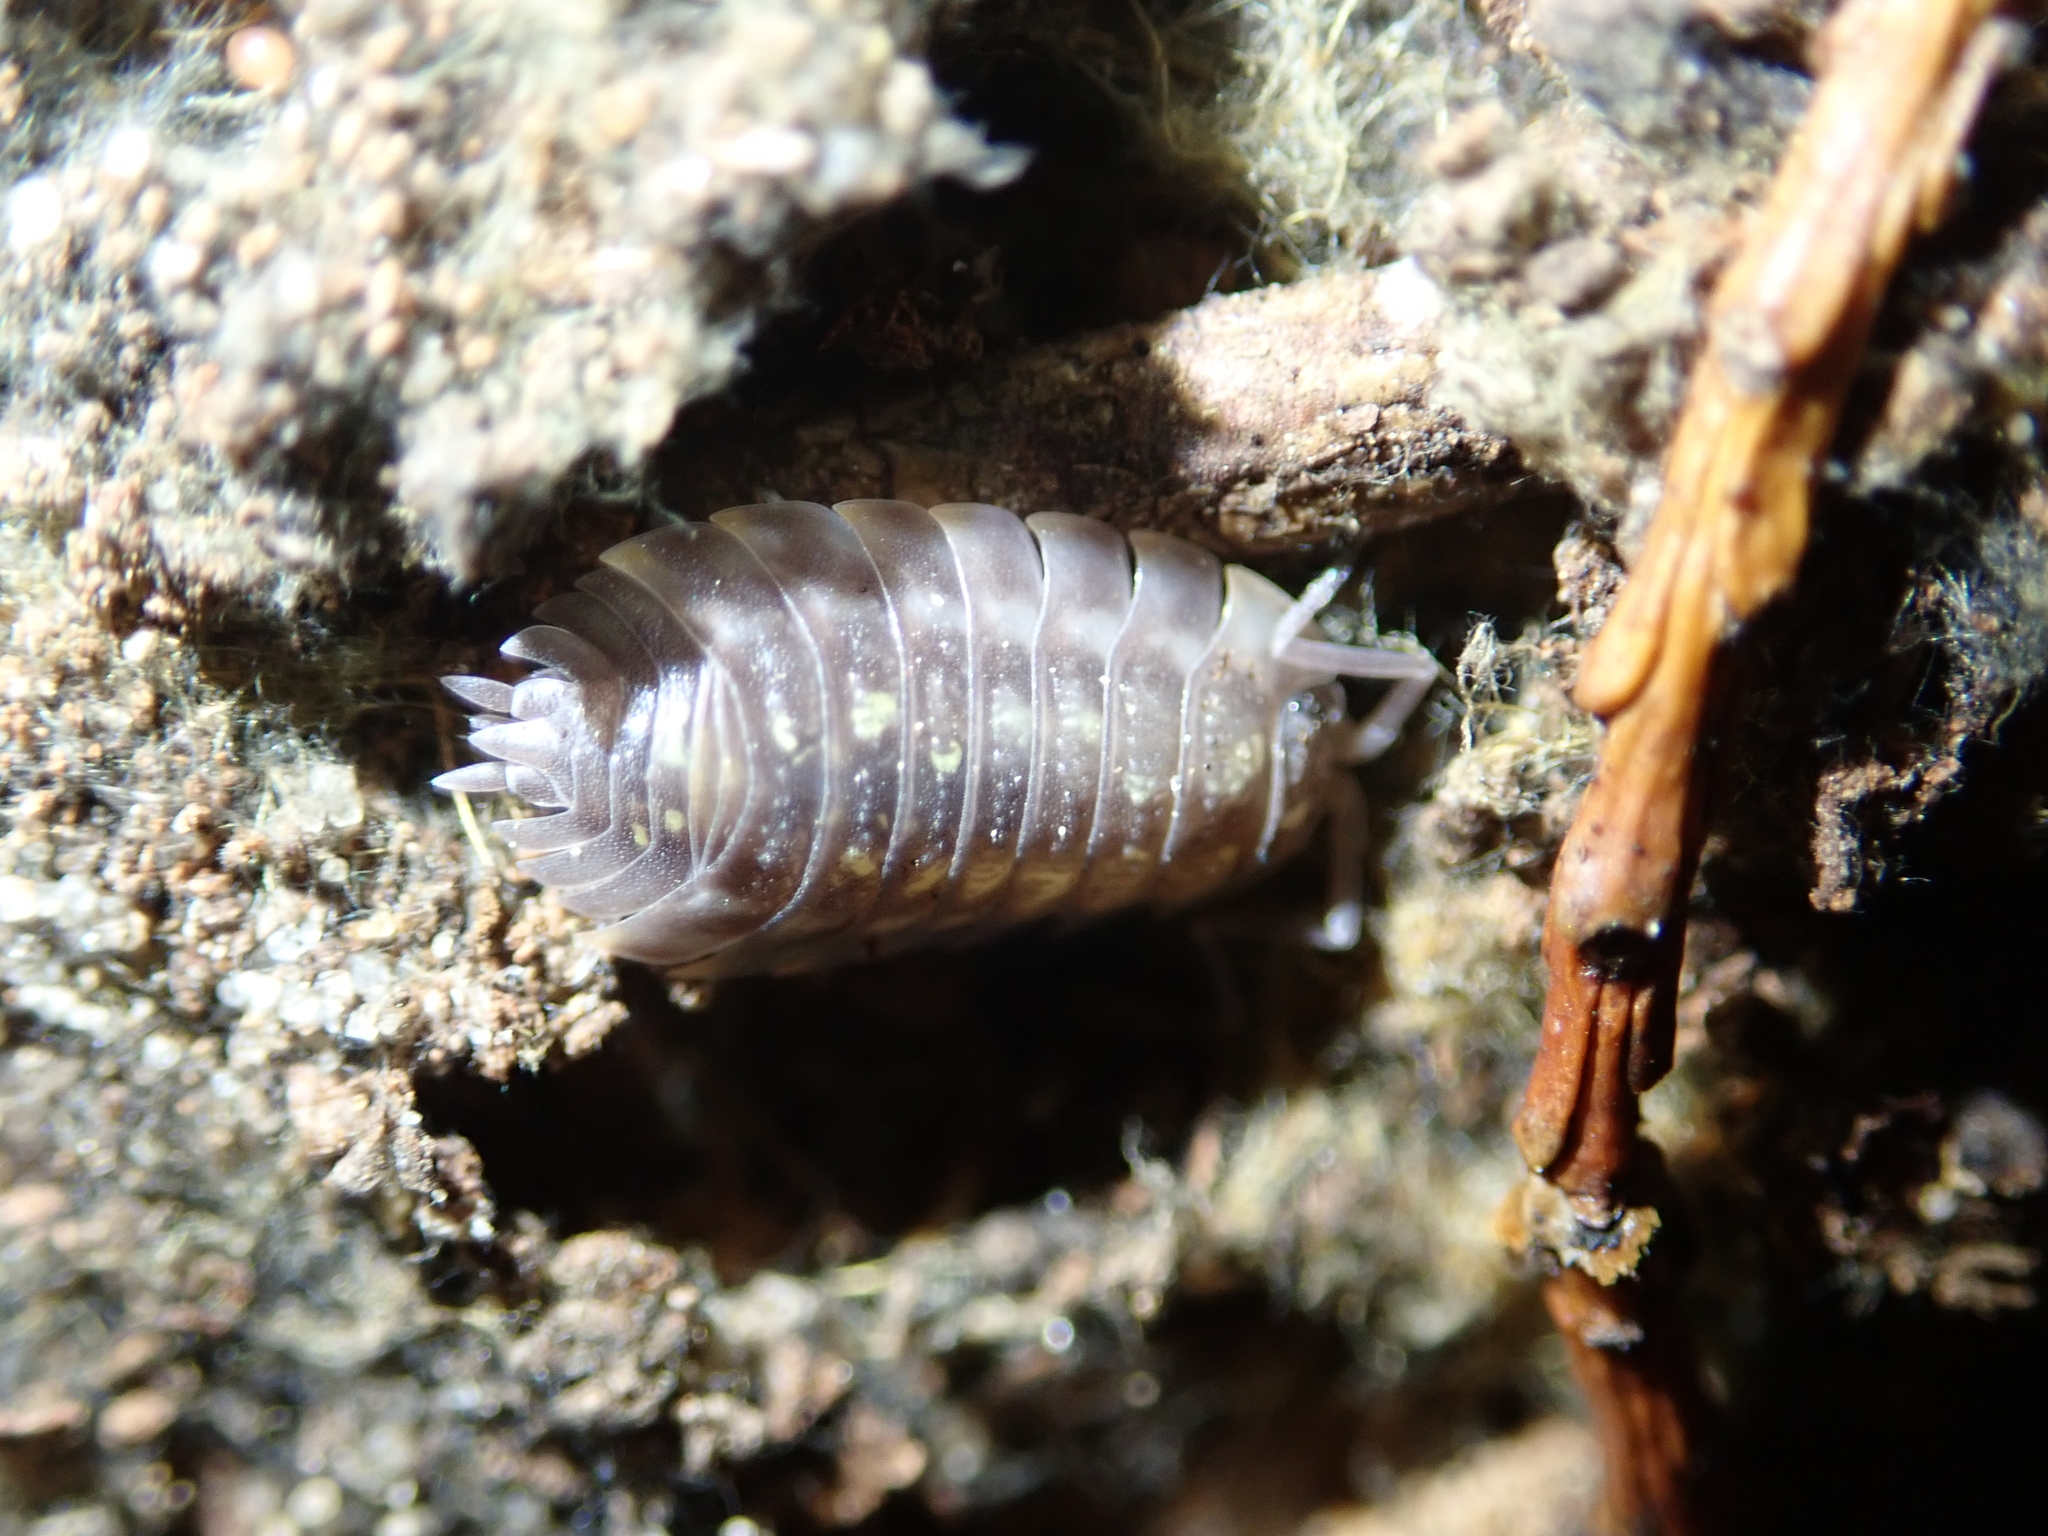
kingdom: Animalia
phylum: Arthropoda
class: Malacostraca
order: Isopoda
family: Oniscidae
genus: Oniscus
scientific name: Oniscus asellus
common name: Common shiny woodlouse
